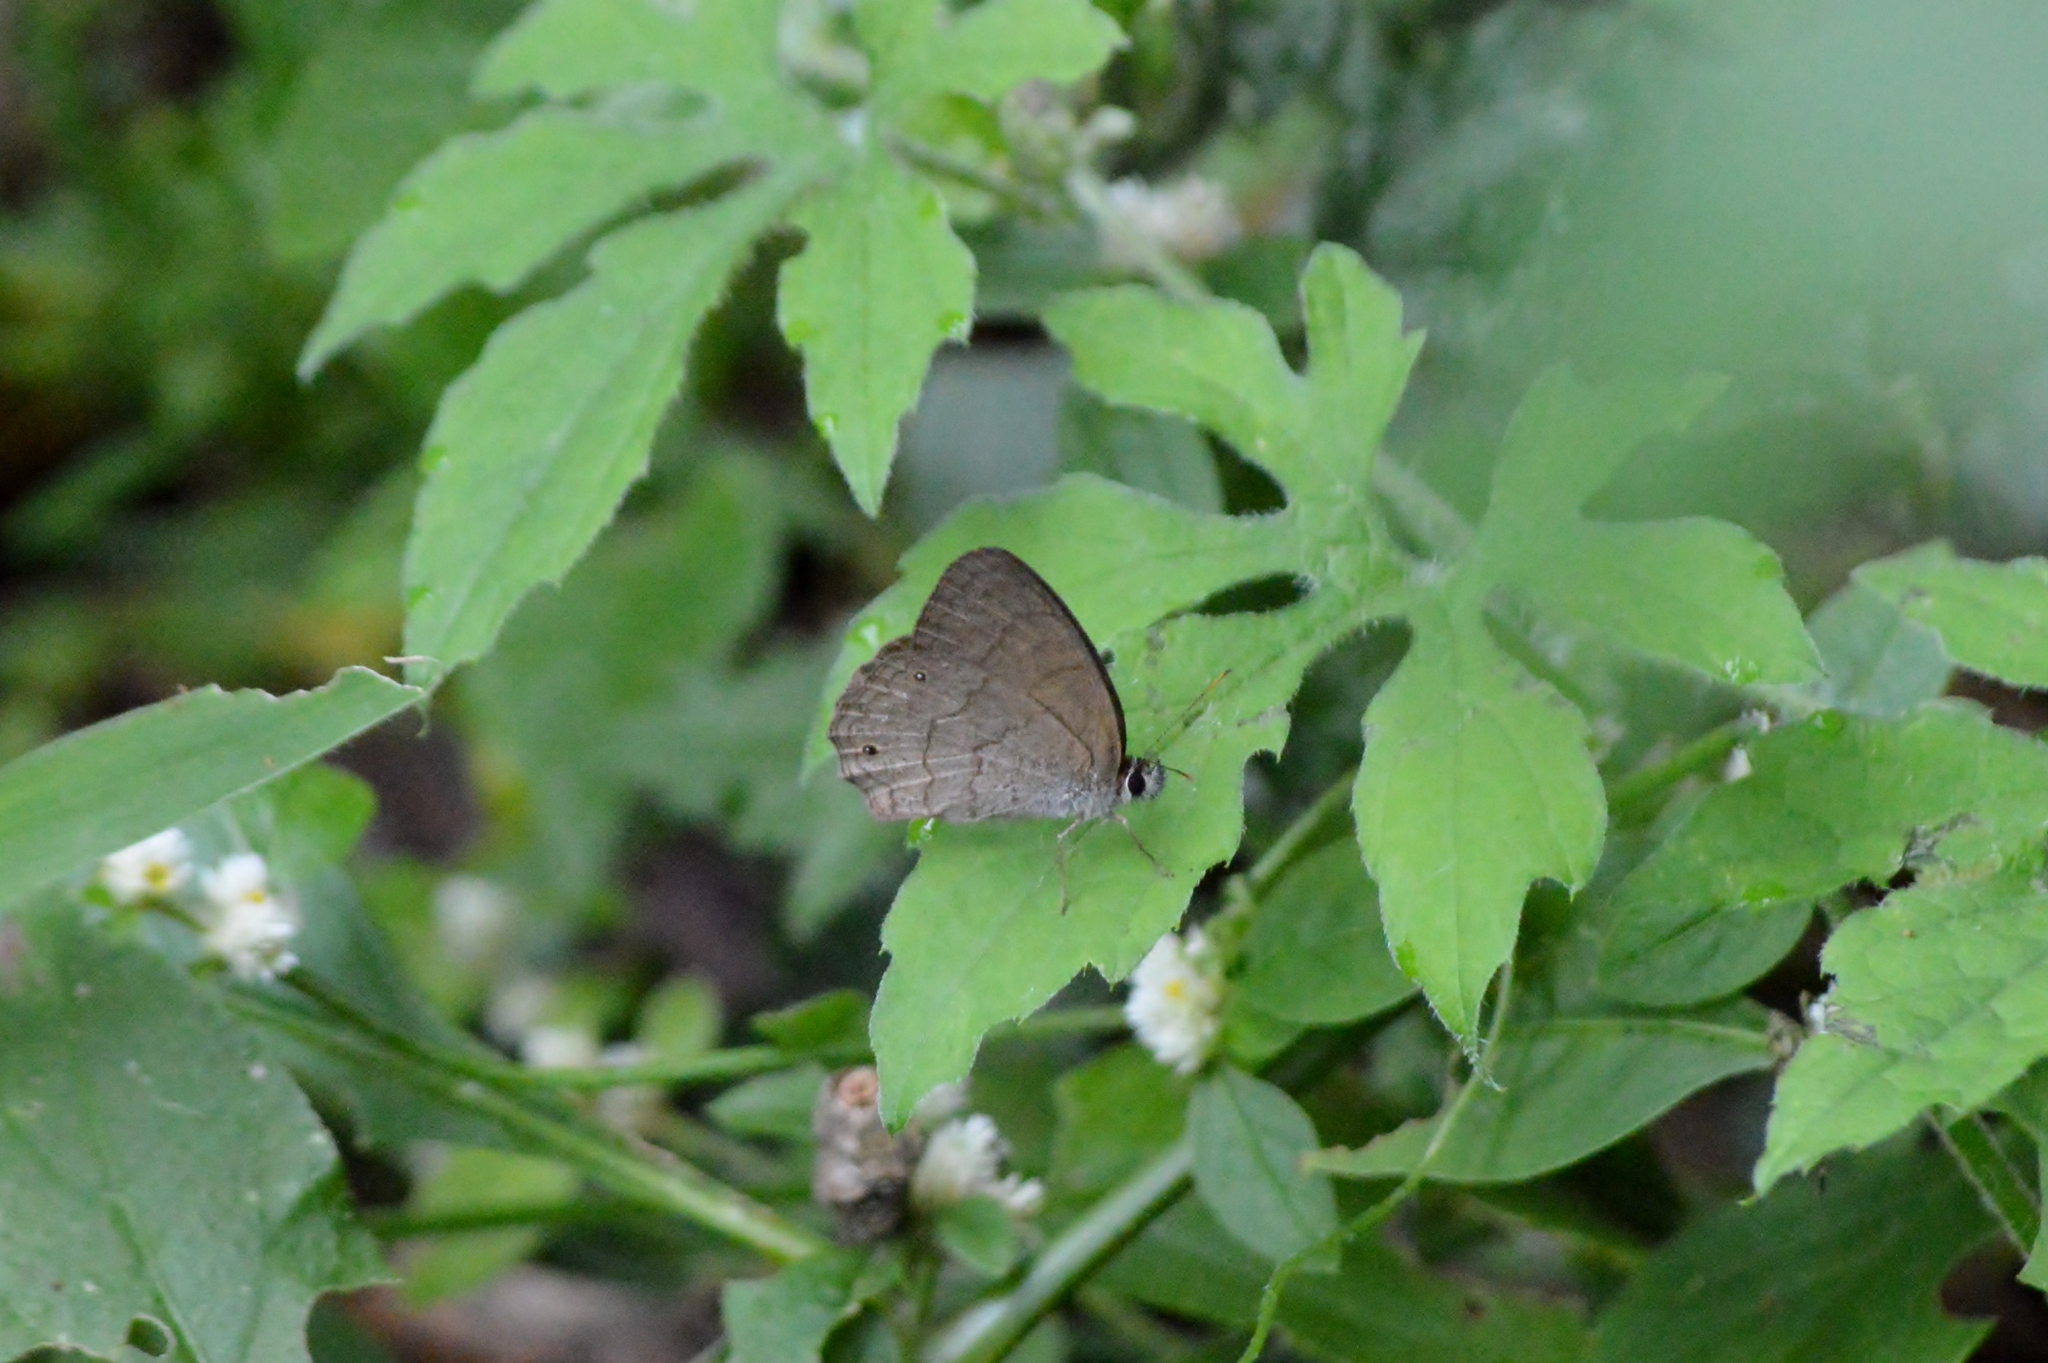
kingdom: Animalia
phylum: Arthropoda
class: Insecta
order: Lepidoptera
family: Nymphalidae
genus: Euptychia
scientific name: Euptychia Cissia eous
